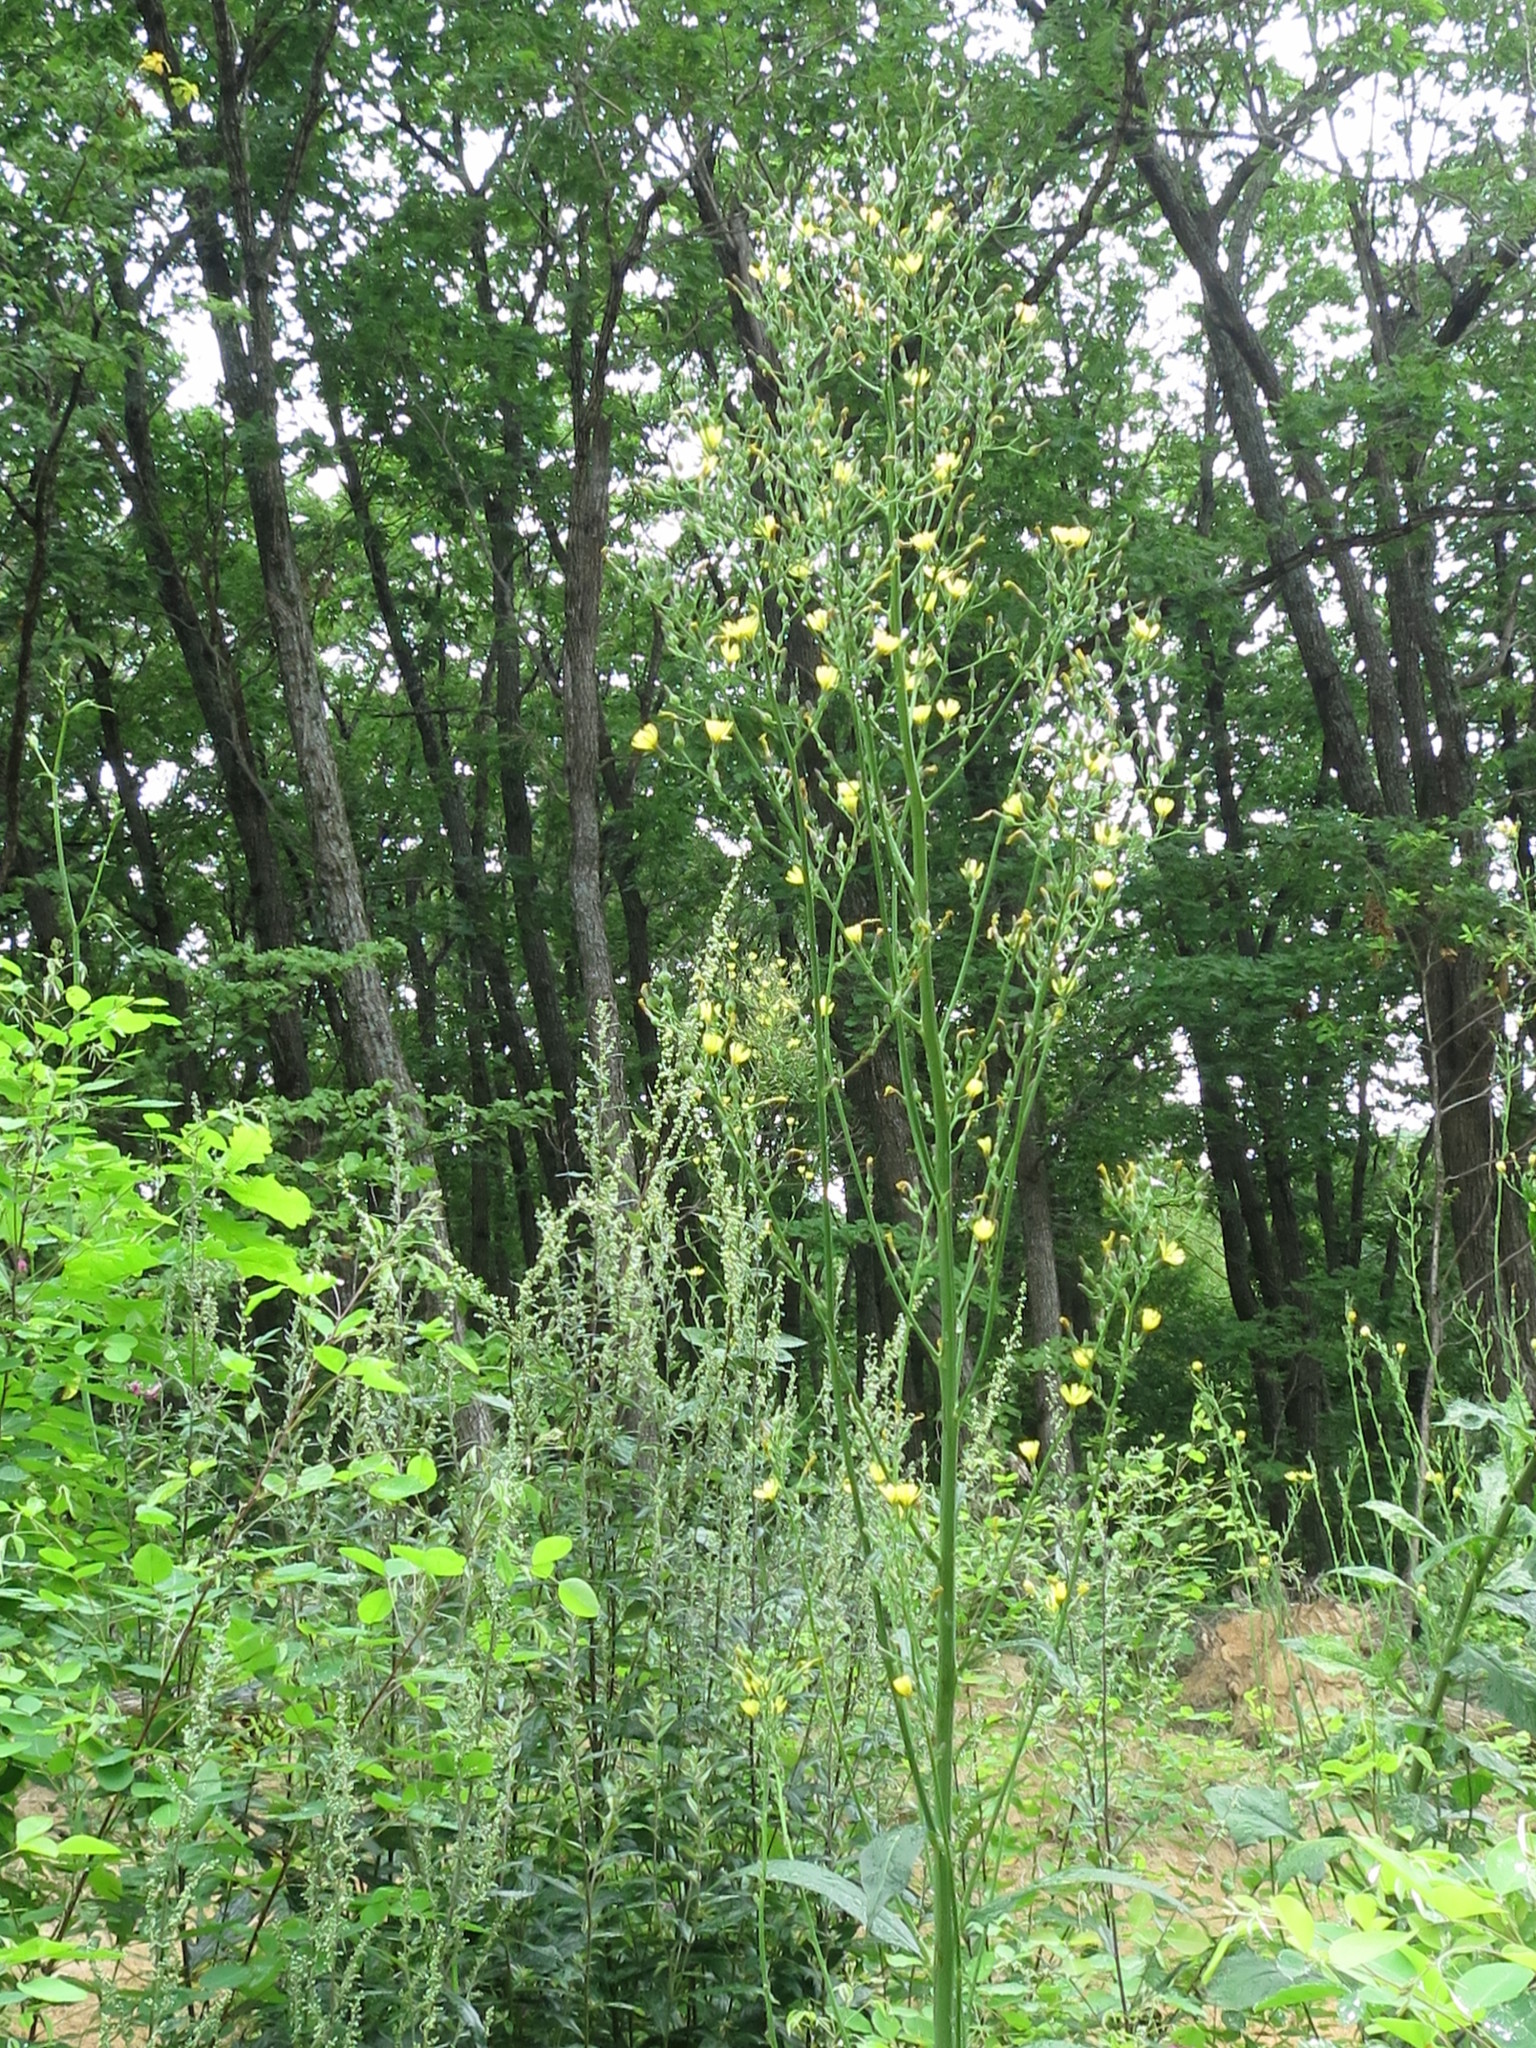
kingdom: Plantae
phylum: Tracheophyta
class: Magnoliopsida
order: Asterales
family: Asteraceae
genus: Lactuca
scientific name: Lactuca raddeana
